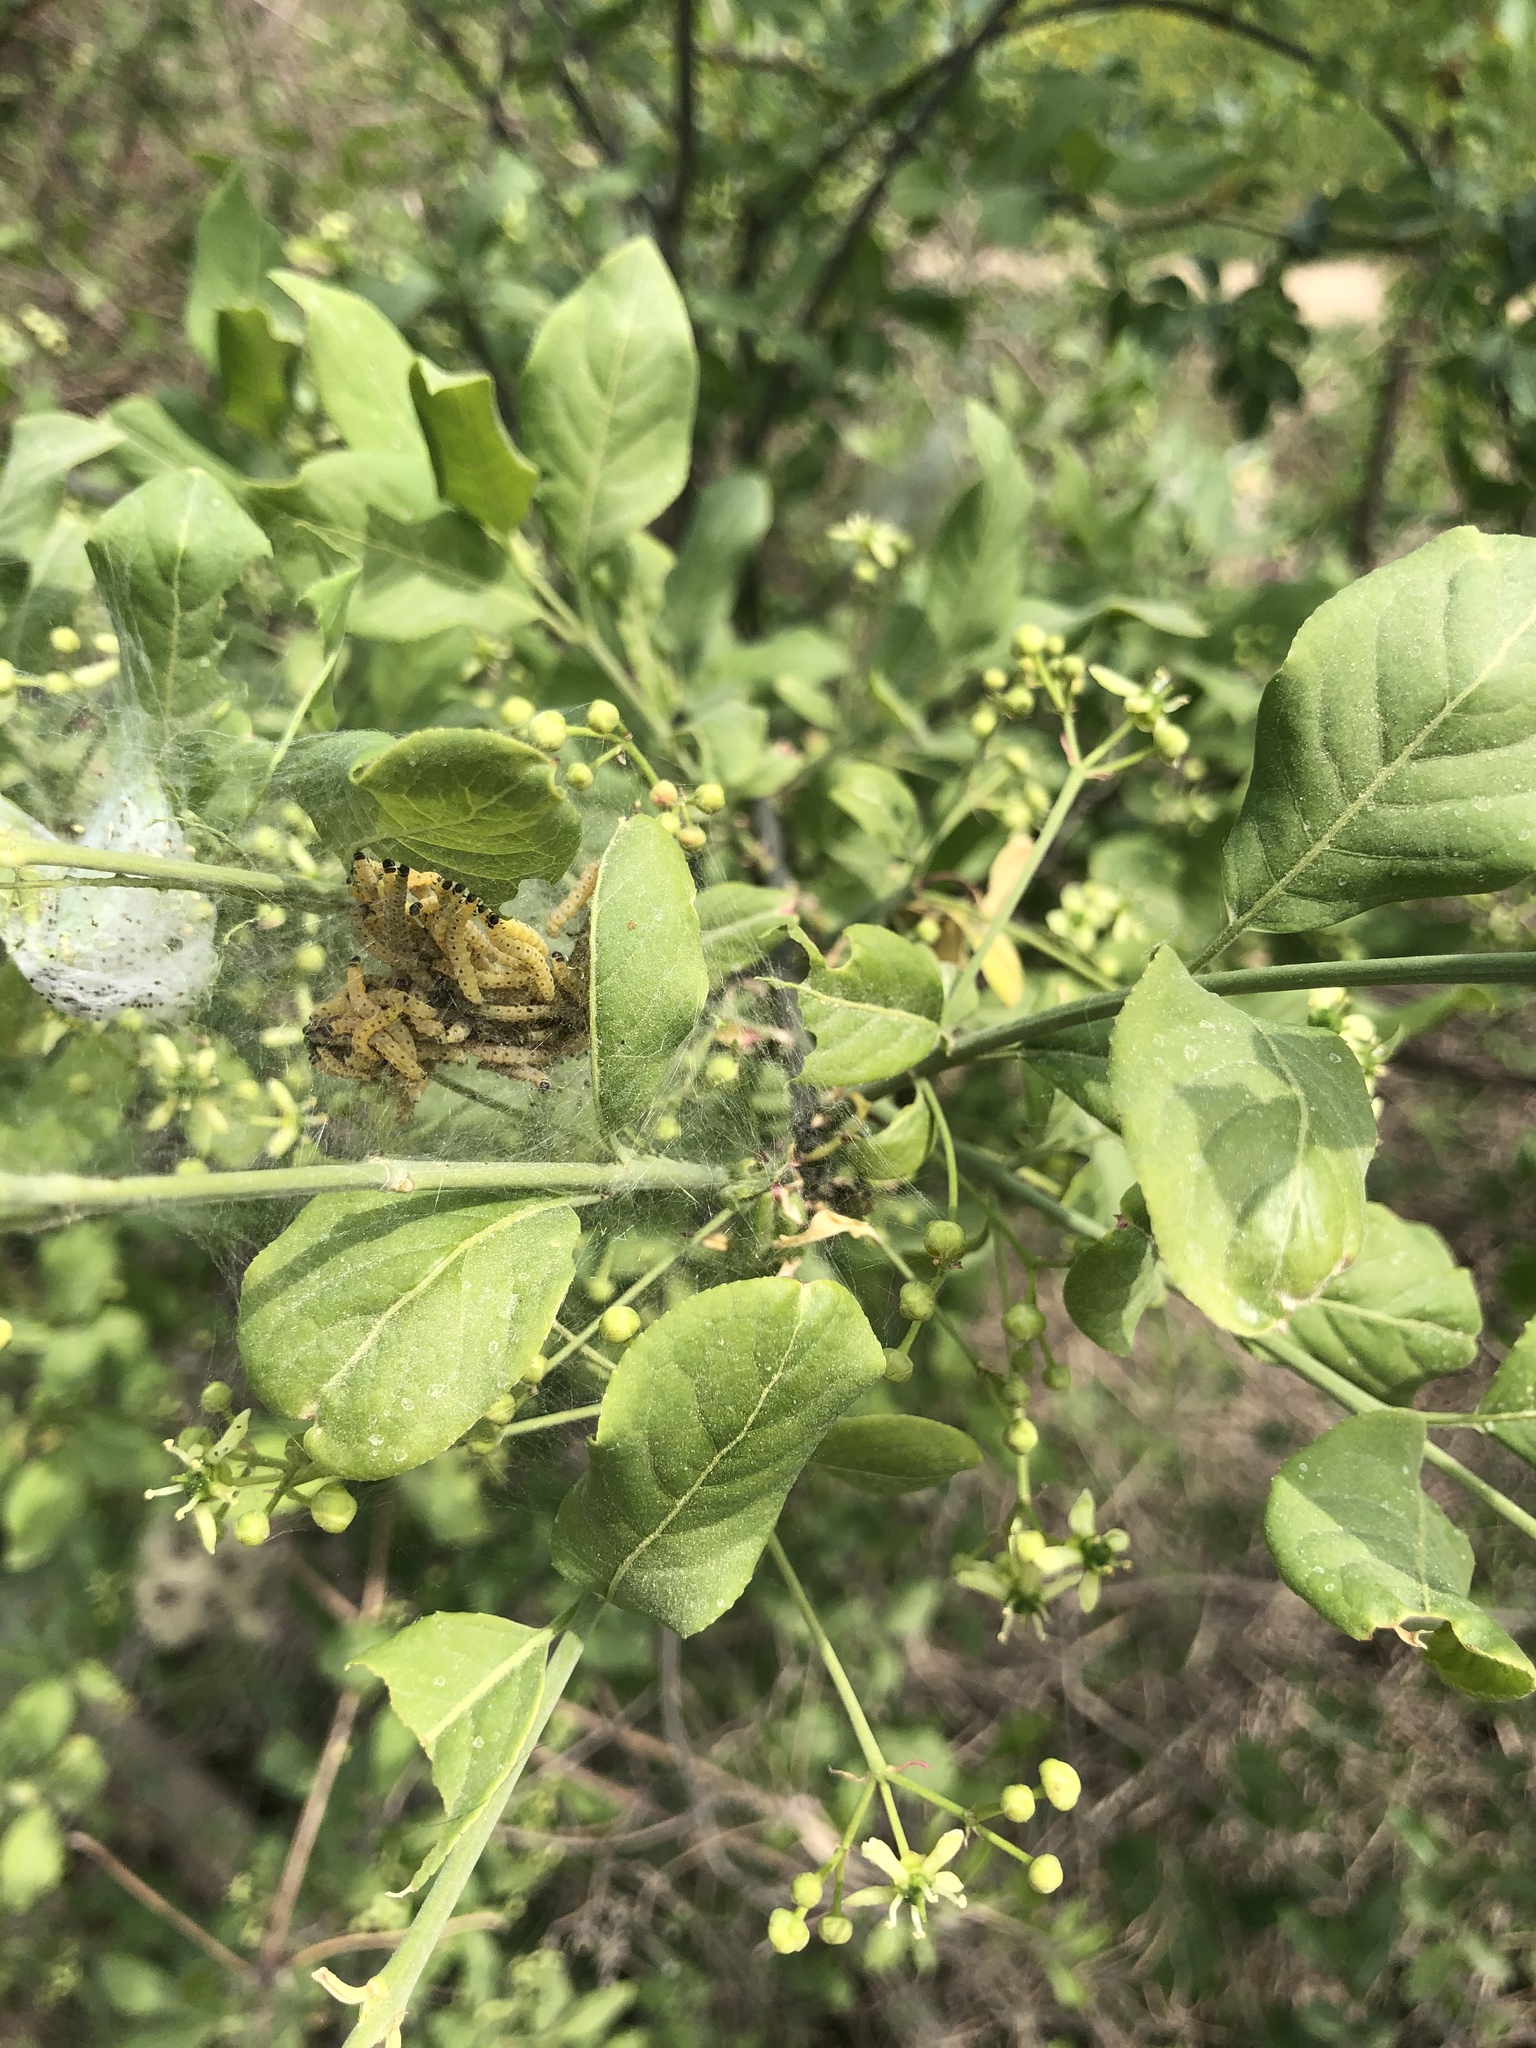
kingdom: Animalia
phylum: Arthropoda
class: Insecta
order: Lepidoptera
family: Yponomeutidae
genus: Yponomeuta
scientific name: Yponomeuta cagnagellus
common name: Spindle ermine
